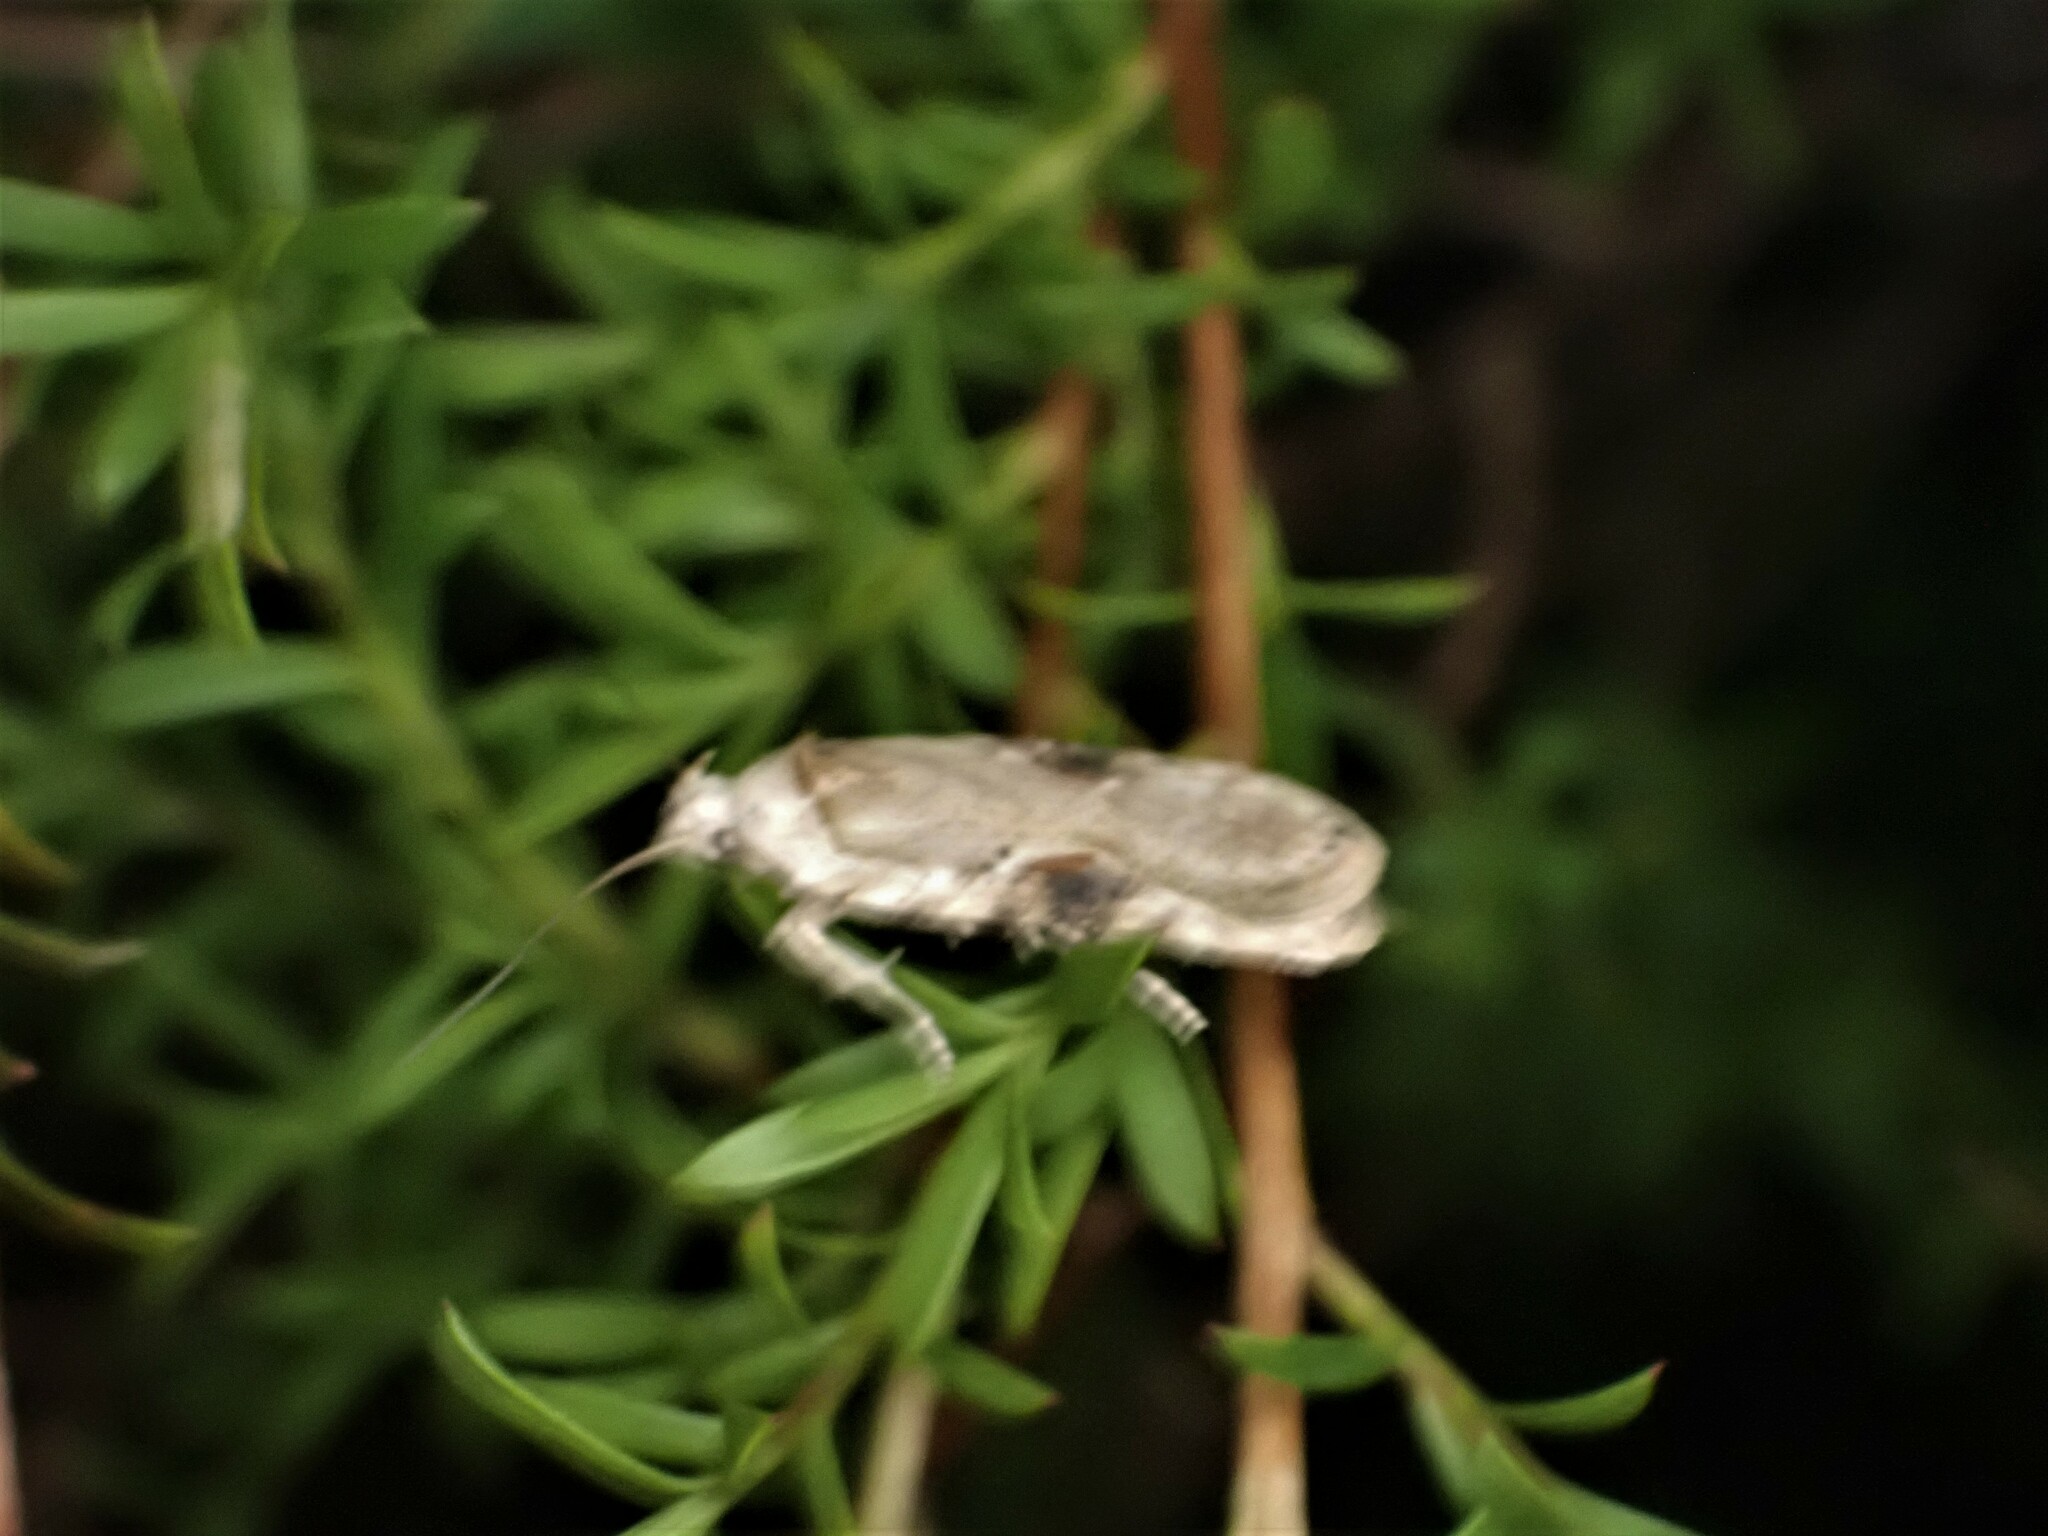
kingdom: Animalia
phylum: Arthropoda
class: Insecta
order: Lepidoptera
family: Depressariidae
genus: Agonopterix
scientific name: Agonopterix alstroemeriana
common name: Moth
